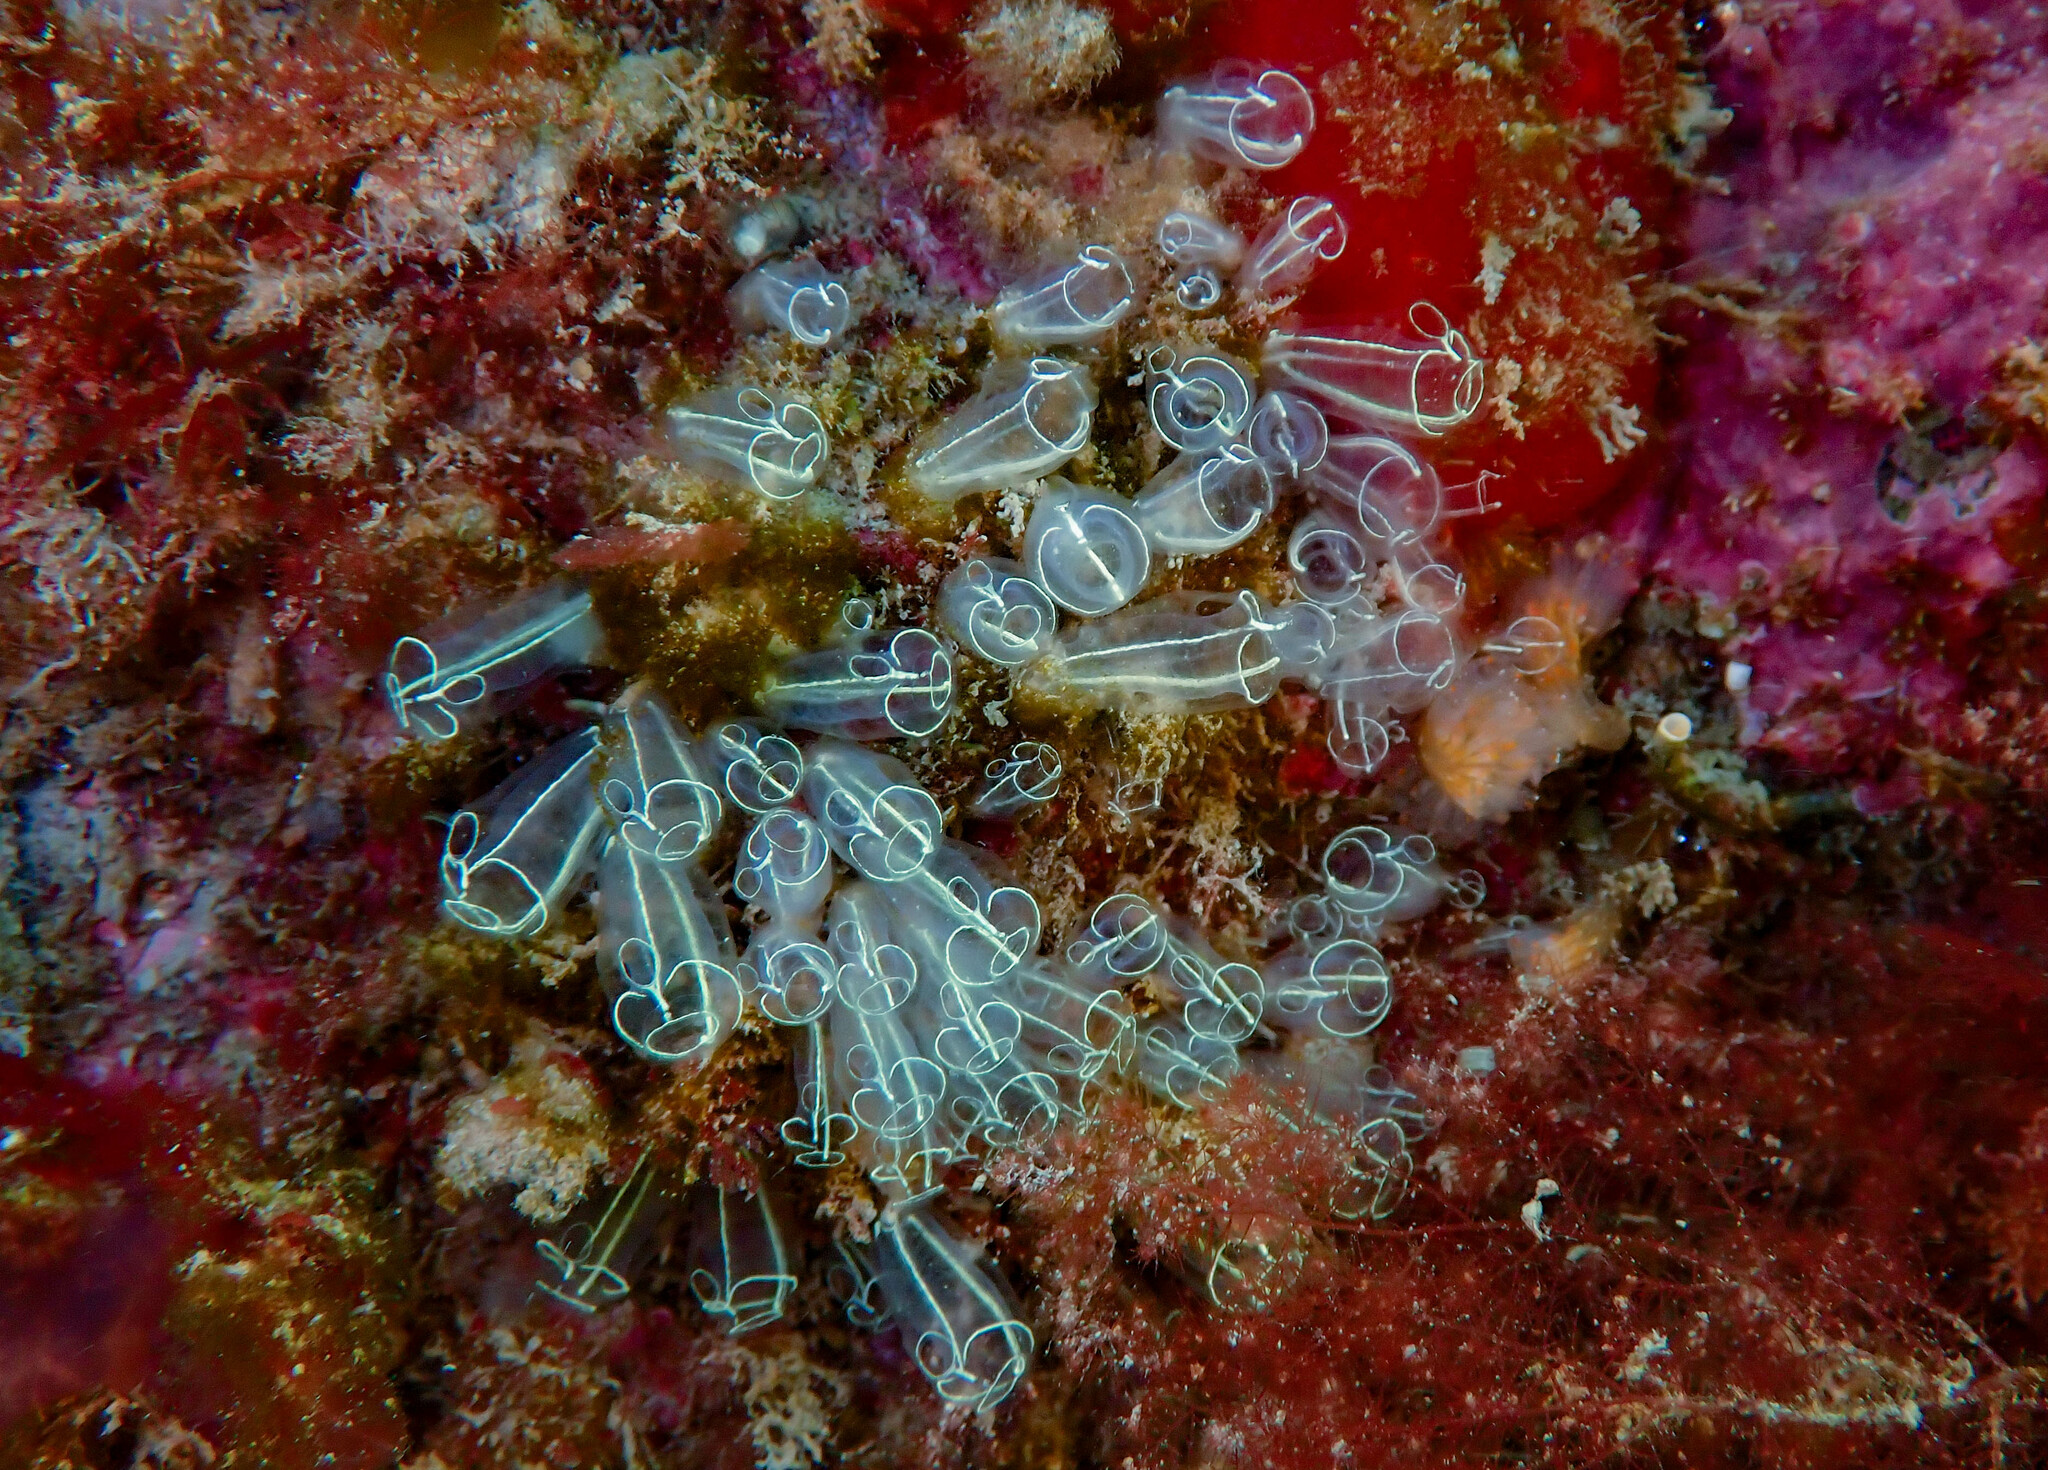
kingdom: Animalia
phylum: Chordata
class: Ascidiacea
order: Aplousobranchia
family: Clavelinidae
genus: Clavelina
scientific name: Clavelina lepadiformis
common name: Light bulb tunicate
